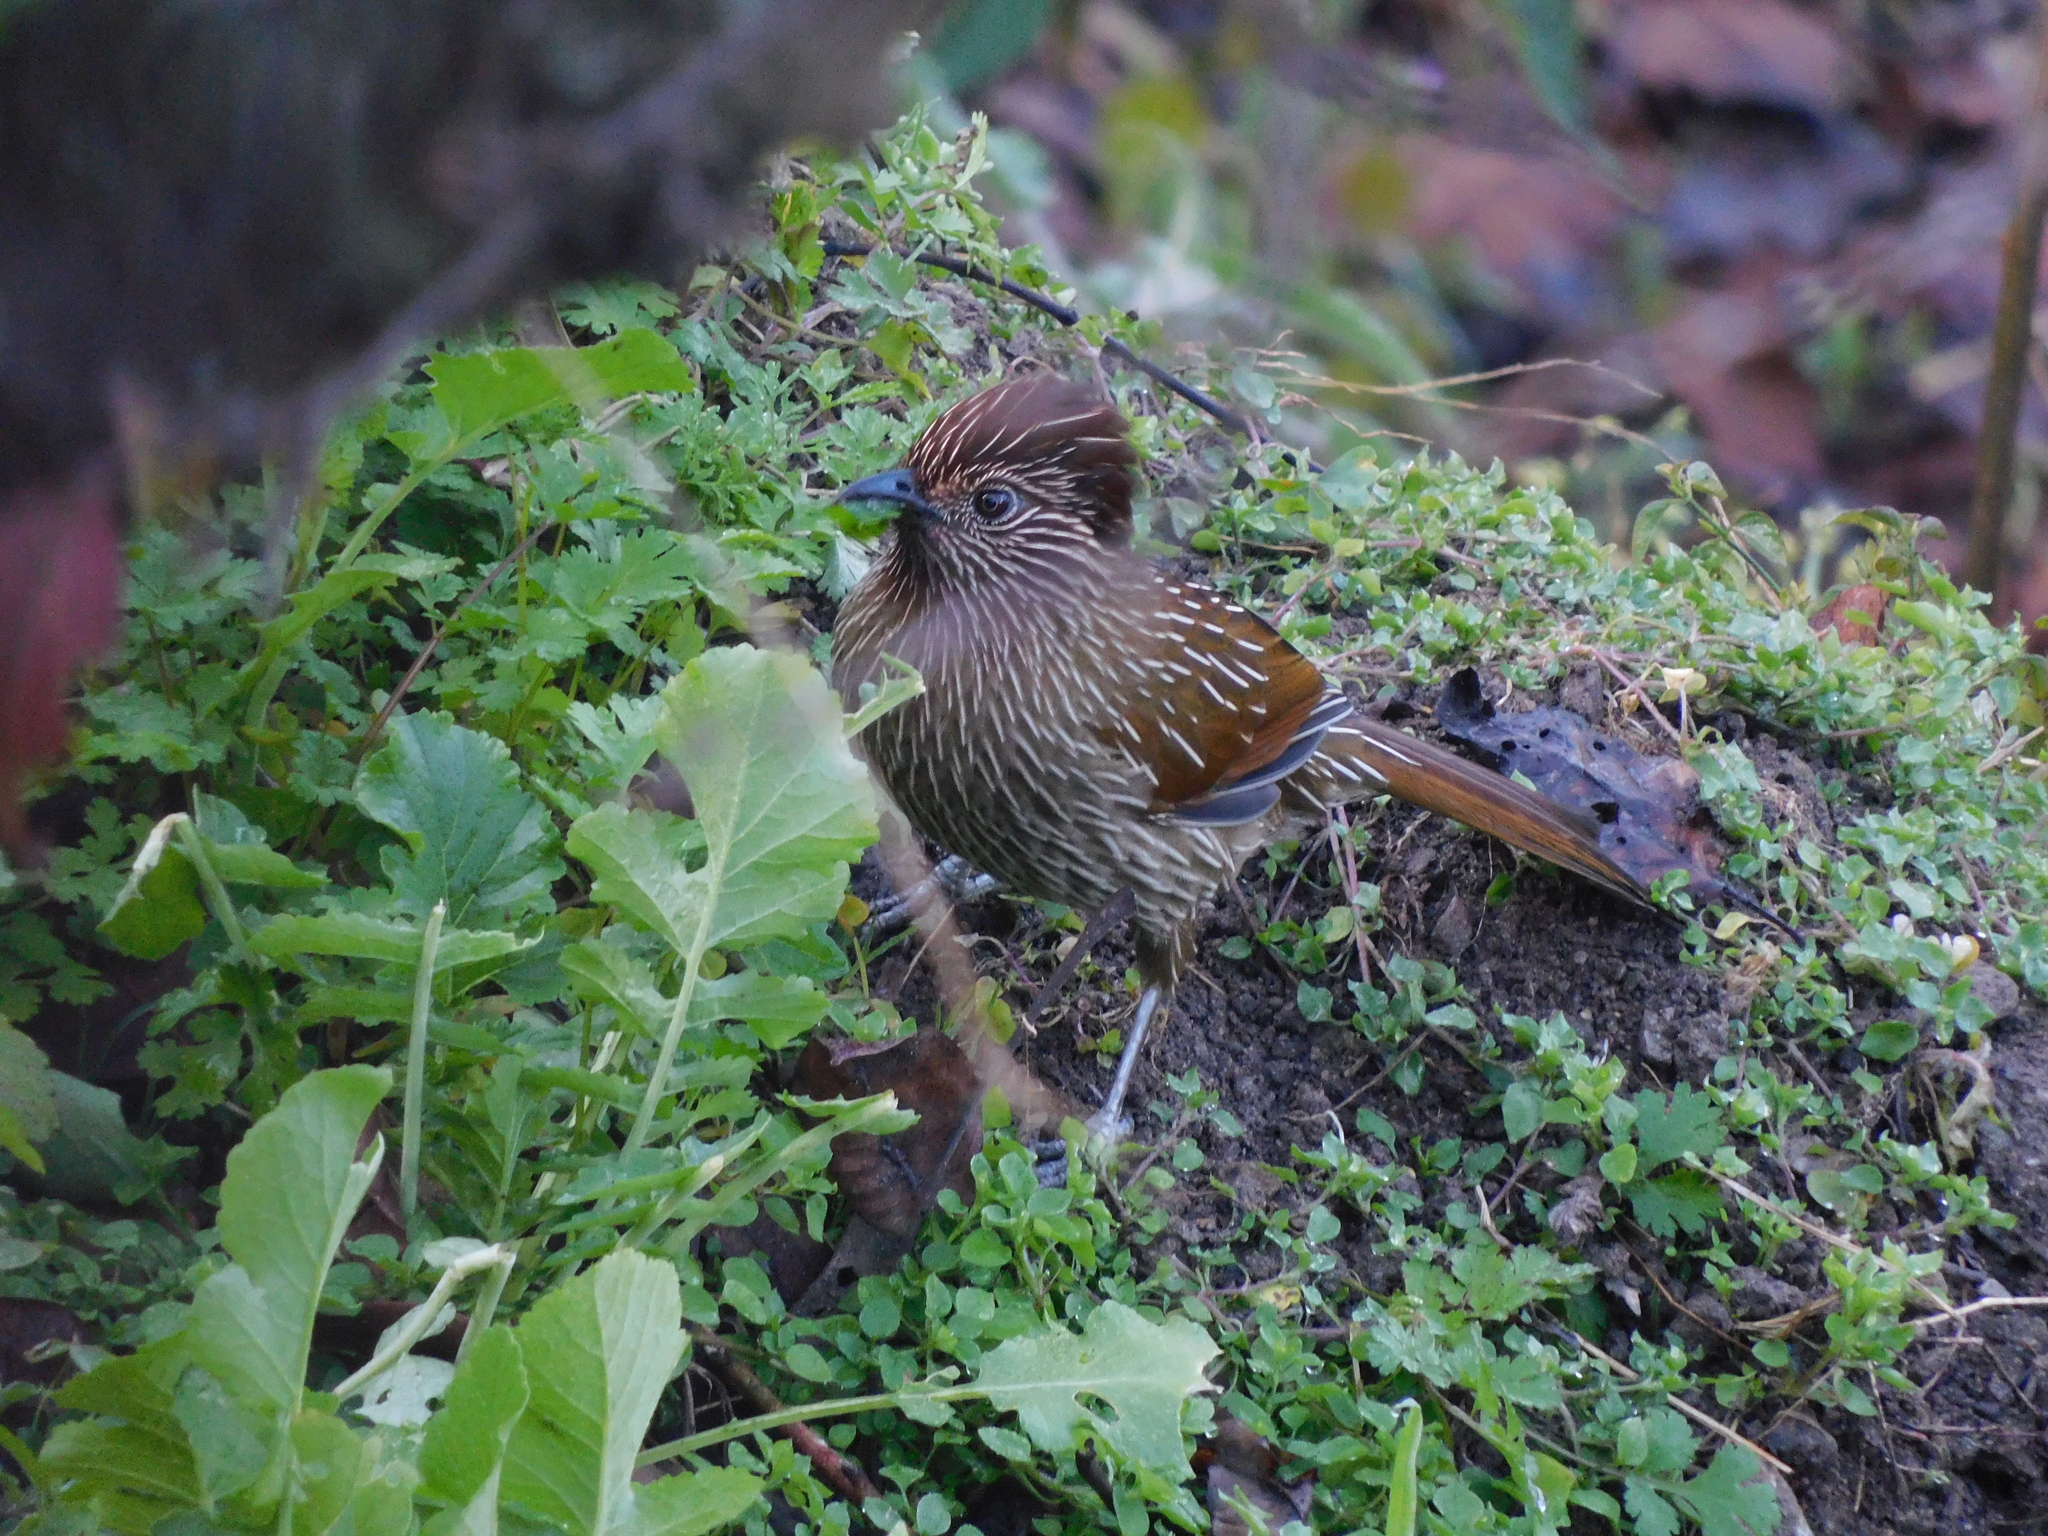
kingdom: Animalia
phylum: Chordata
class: Aves
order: Passeriformes
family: Leiothrichidae
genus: Garrulax
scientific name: Garrulax striatus
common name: Striated laughingthrush
